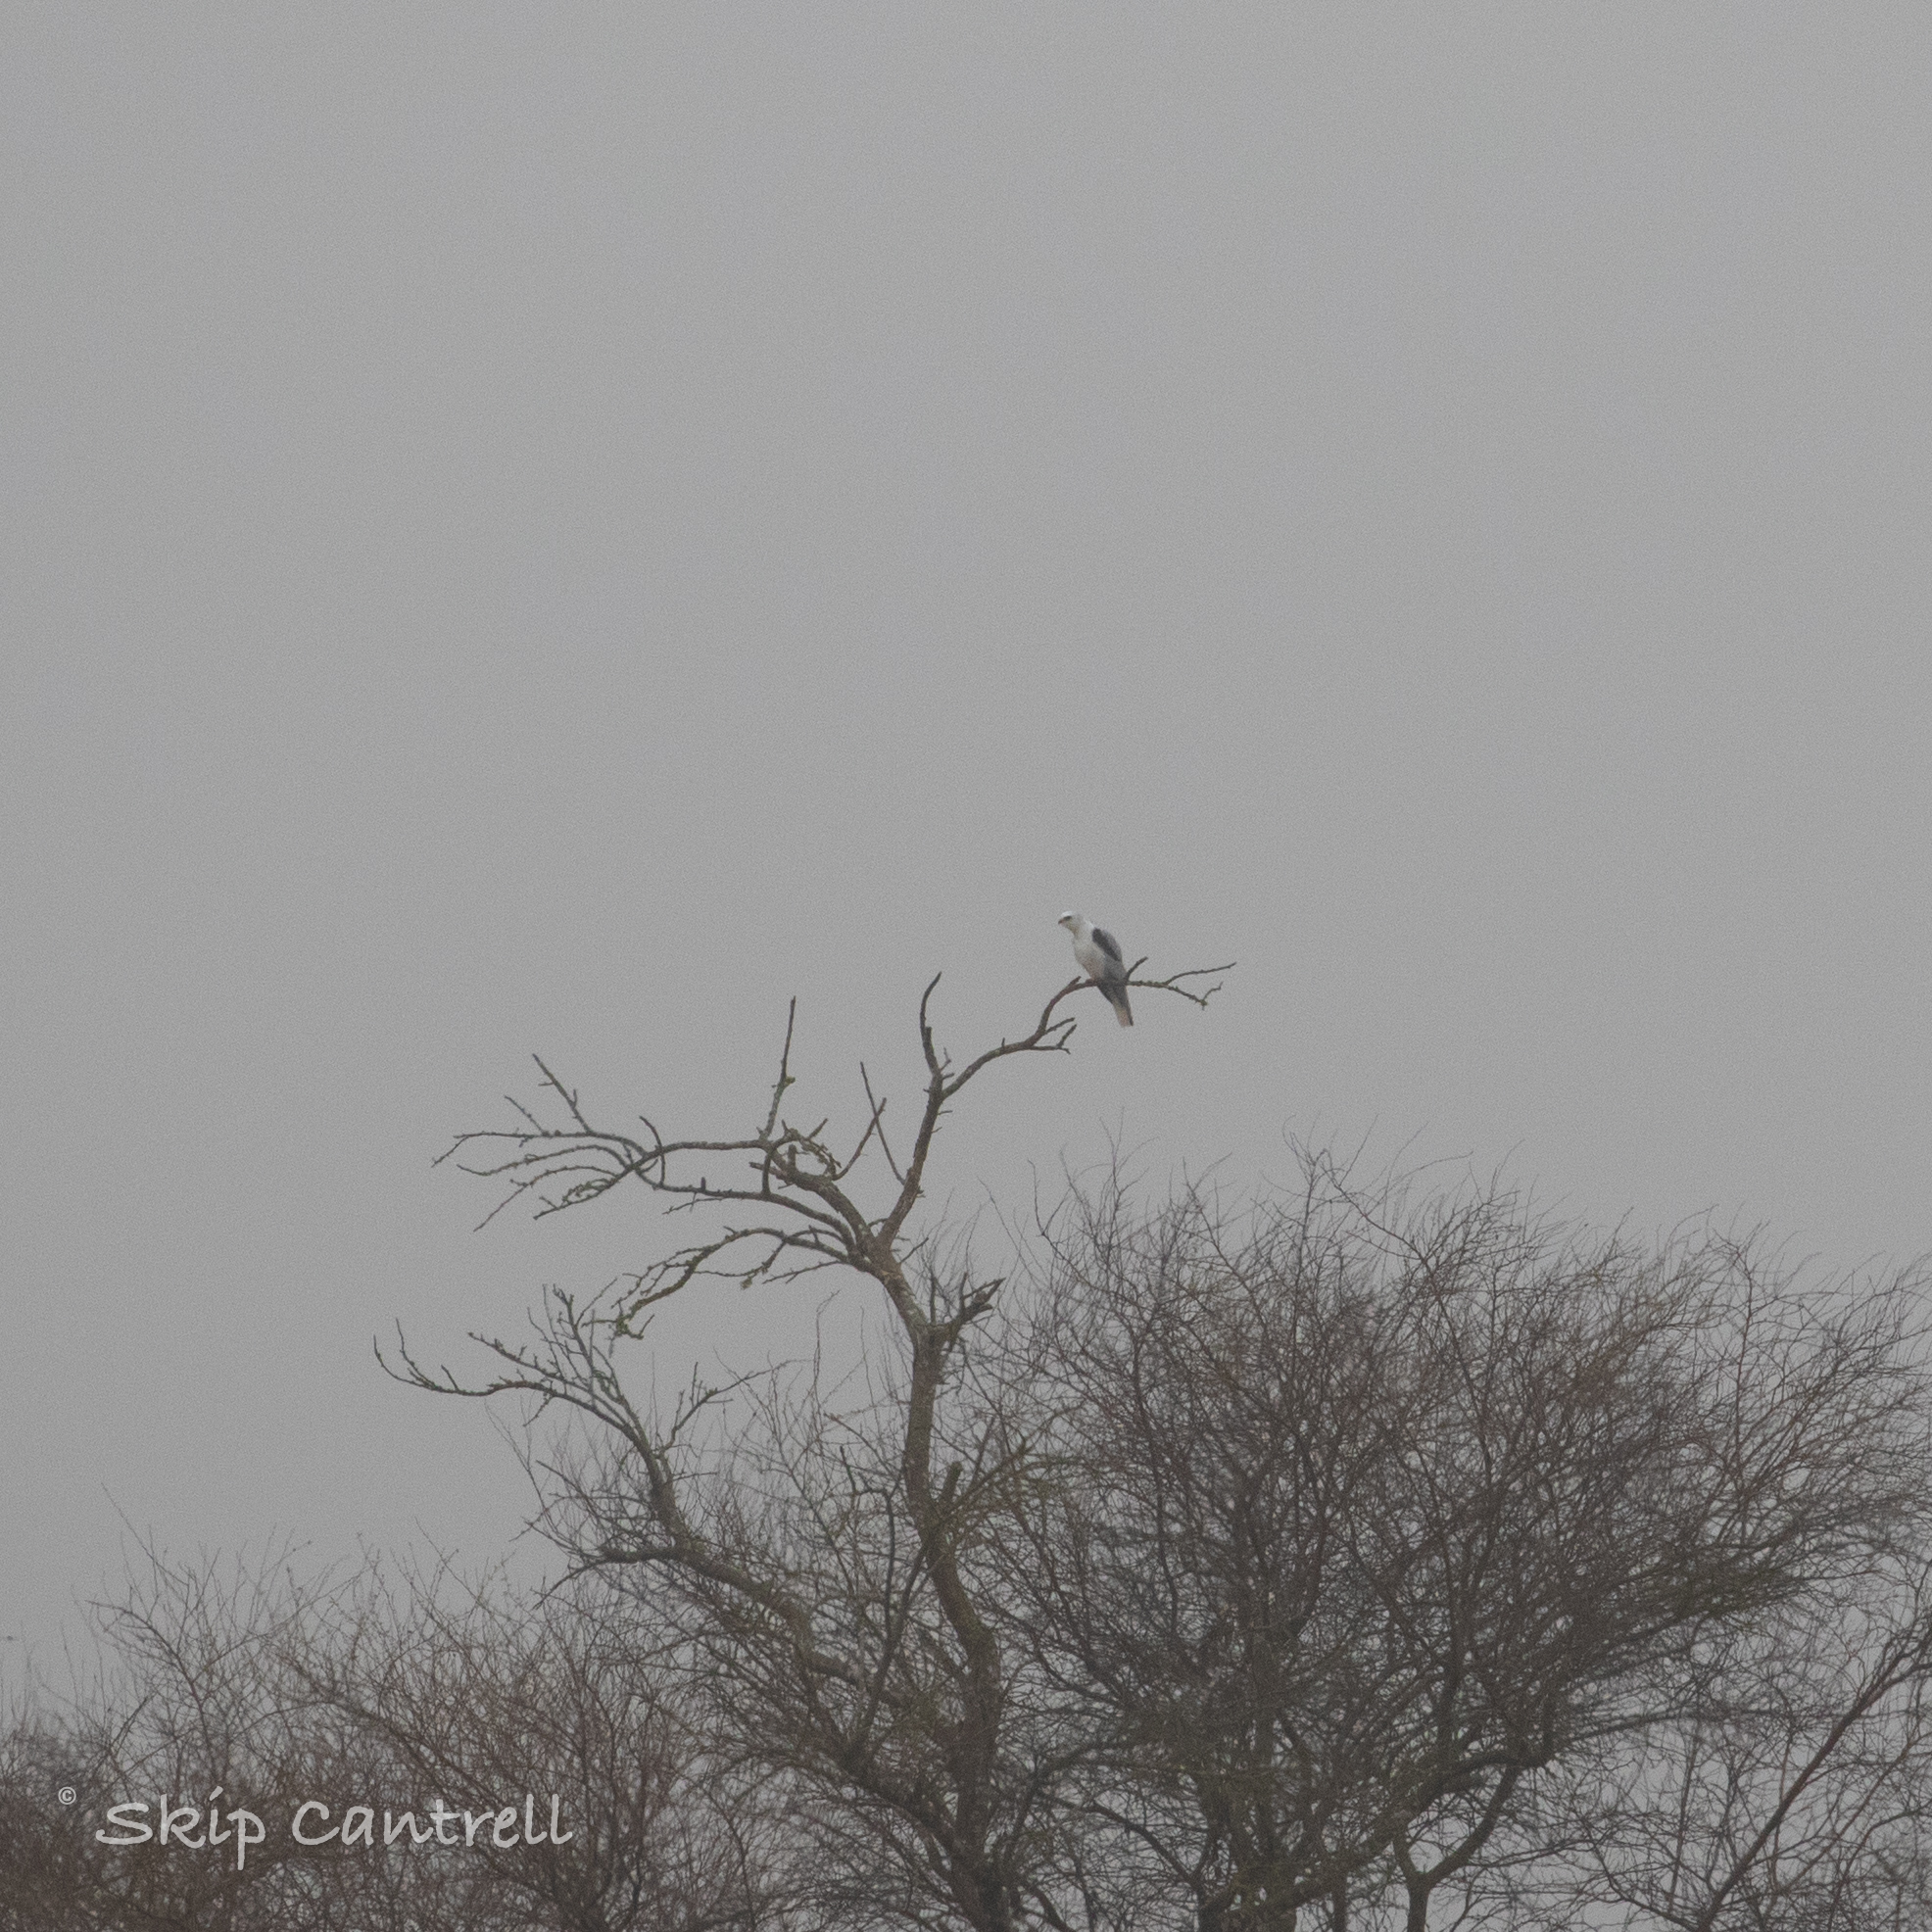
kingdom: Animalia
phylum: Chordata
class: Aves
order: Accipitriformes
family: Accipitridae
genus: Elanus
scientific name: Elanus leucurus
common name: White-tailed kite
